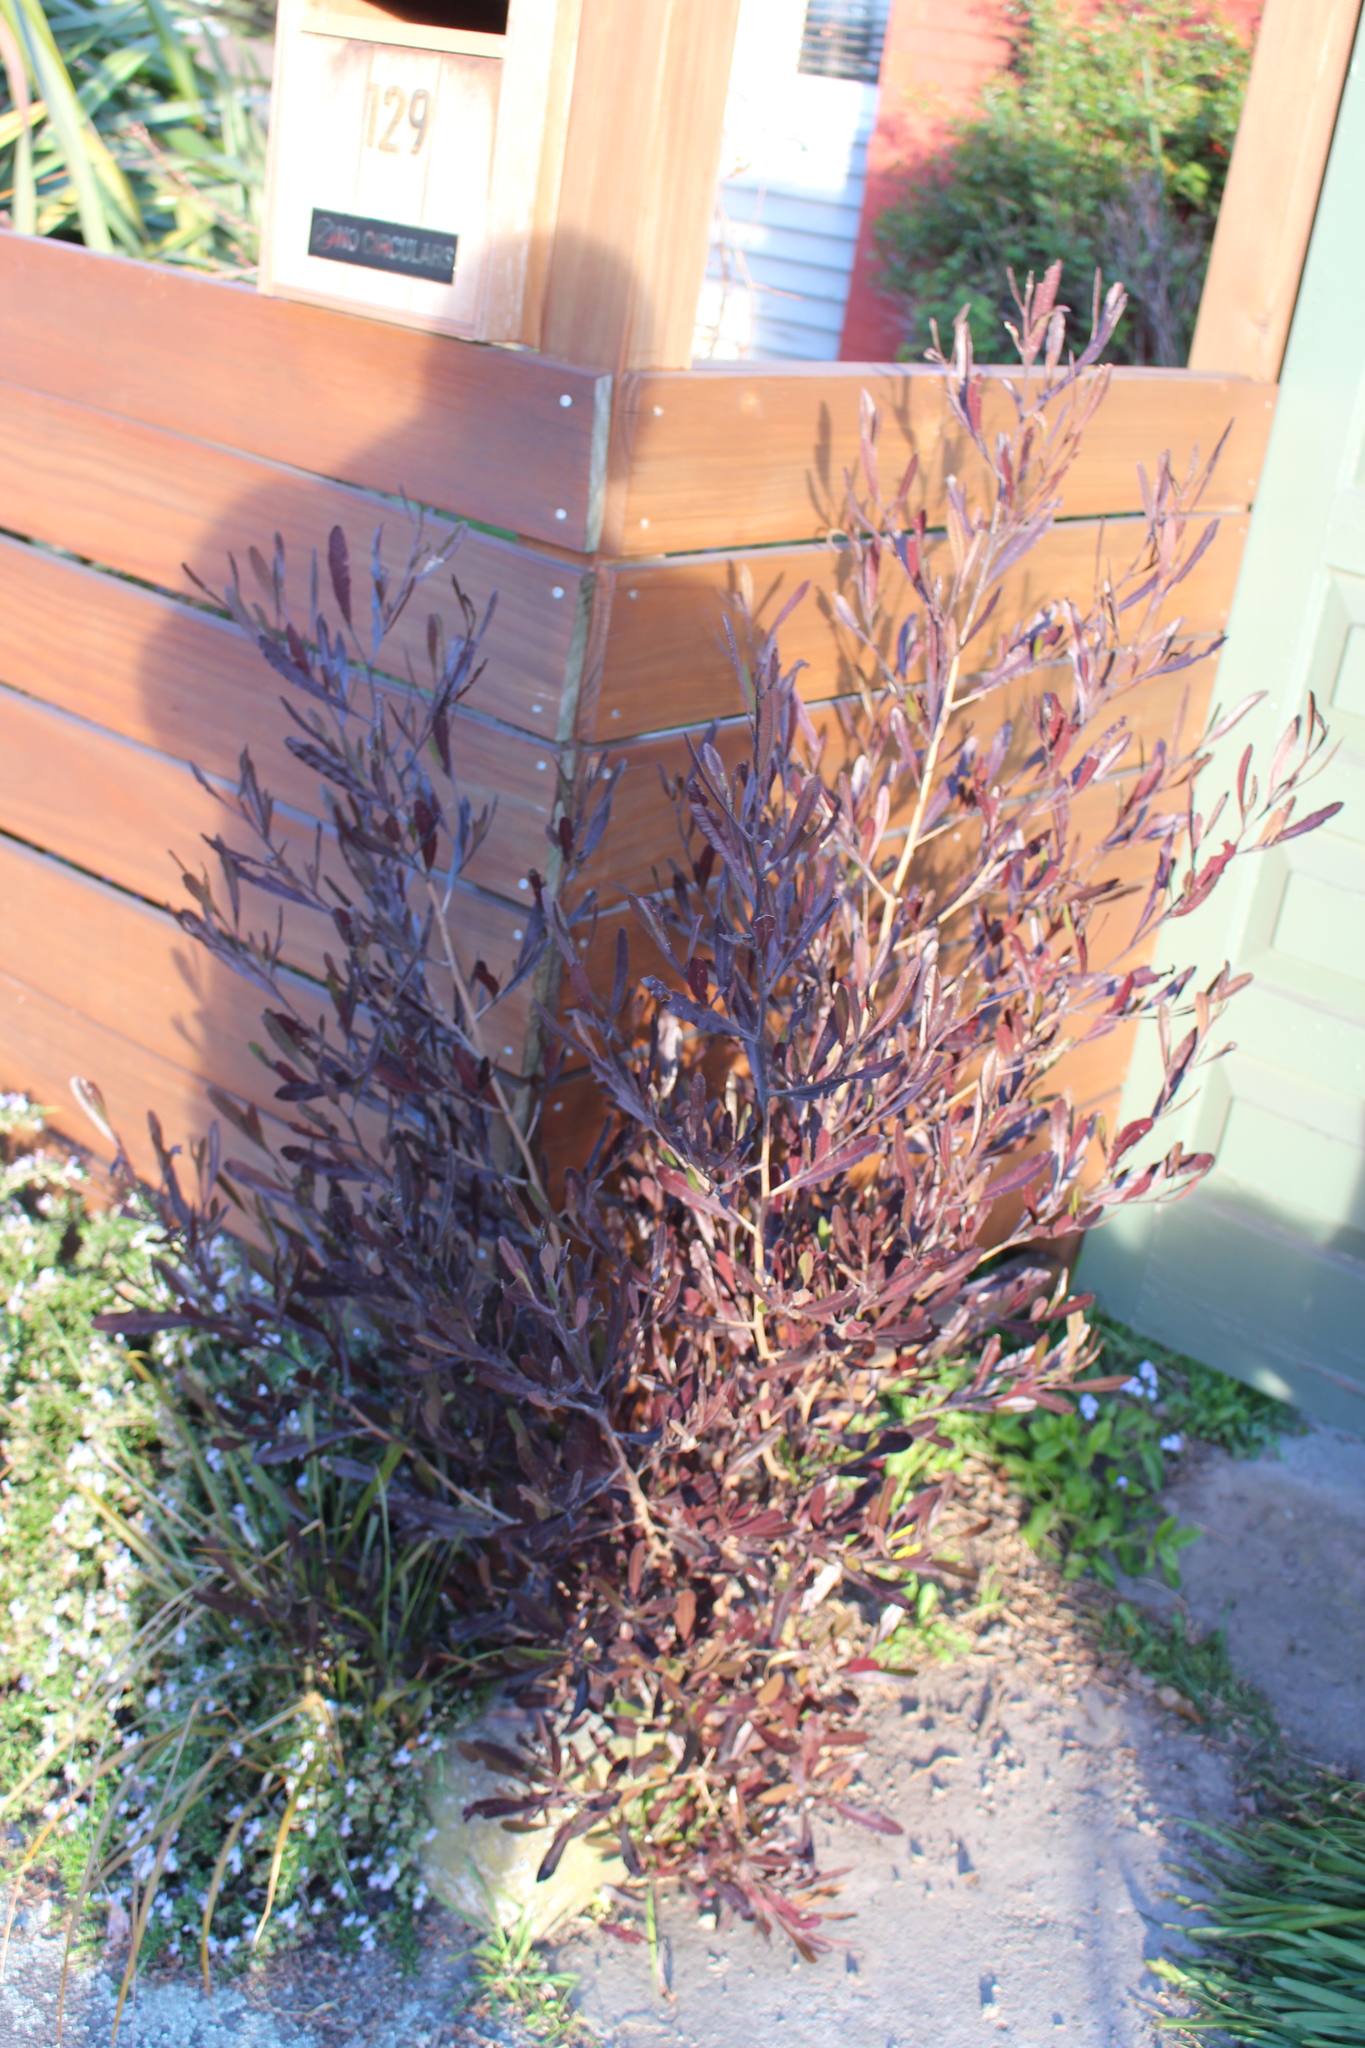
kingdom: Plantae
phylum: Tracheophyta
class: Magnoliopsida
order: Sapindales
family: Sapindaceae
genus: Dodonaea
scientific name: Dodonaea viscosa
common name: Hopbush
